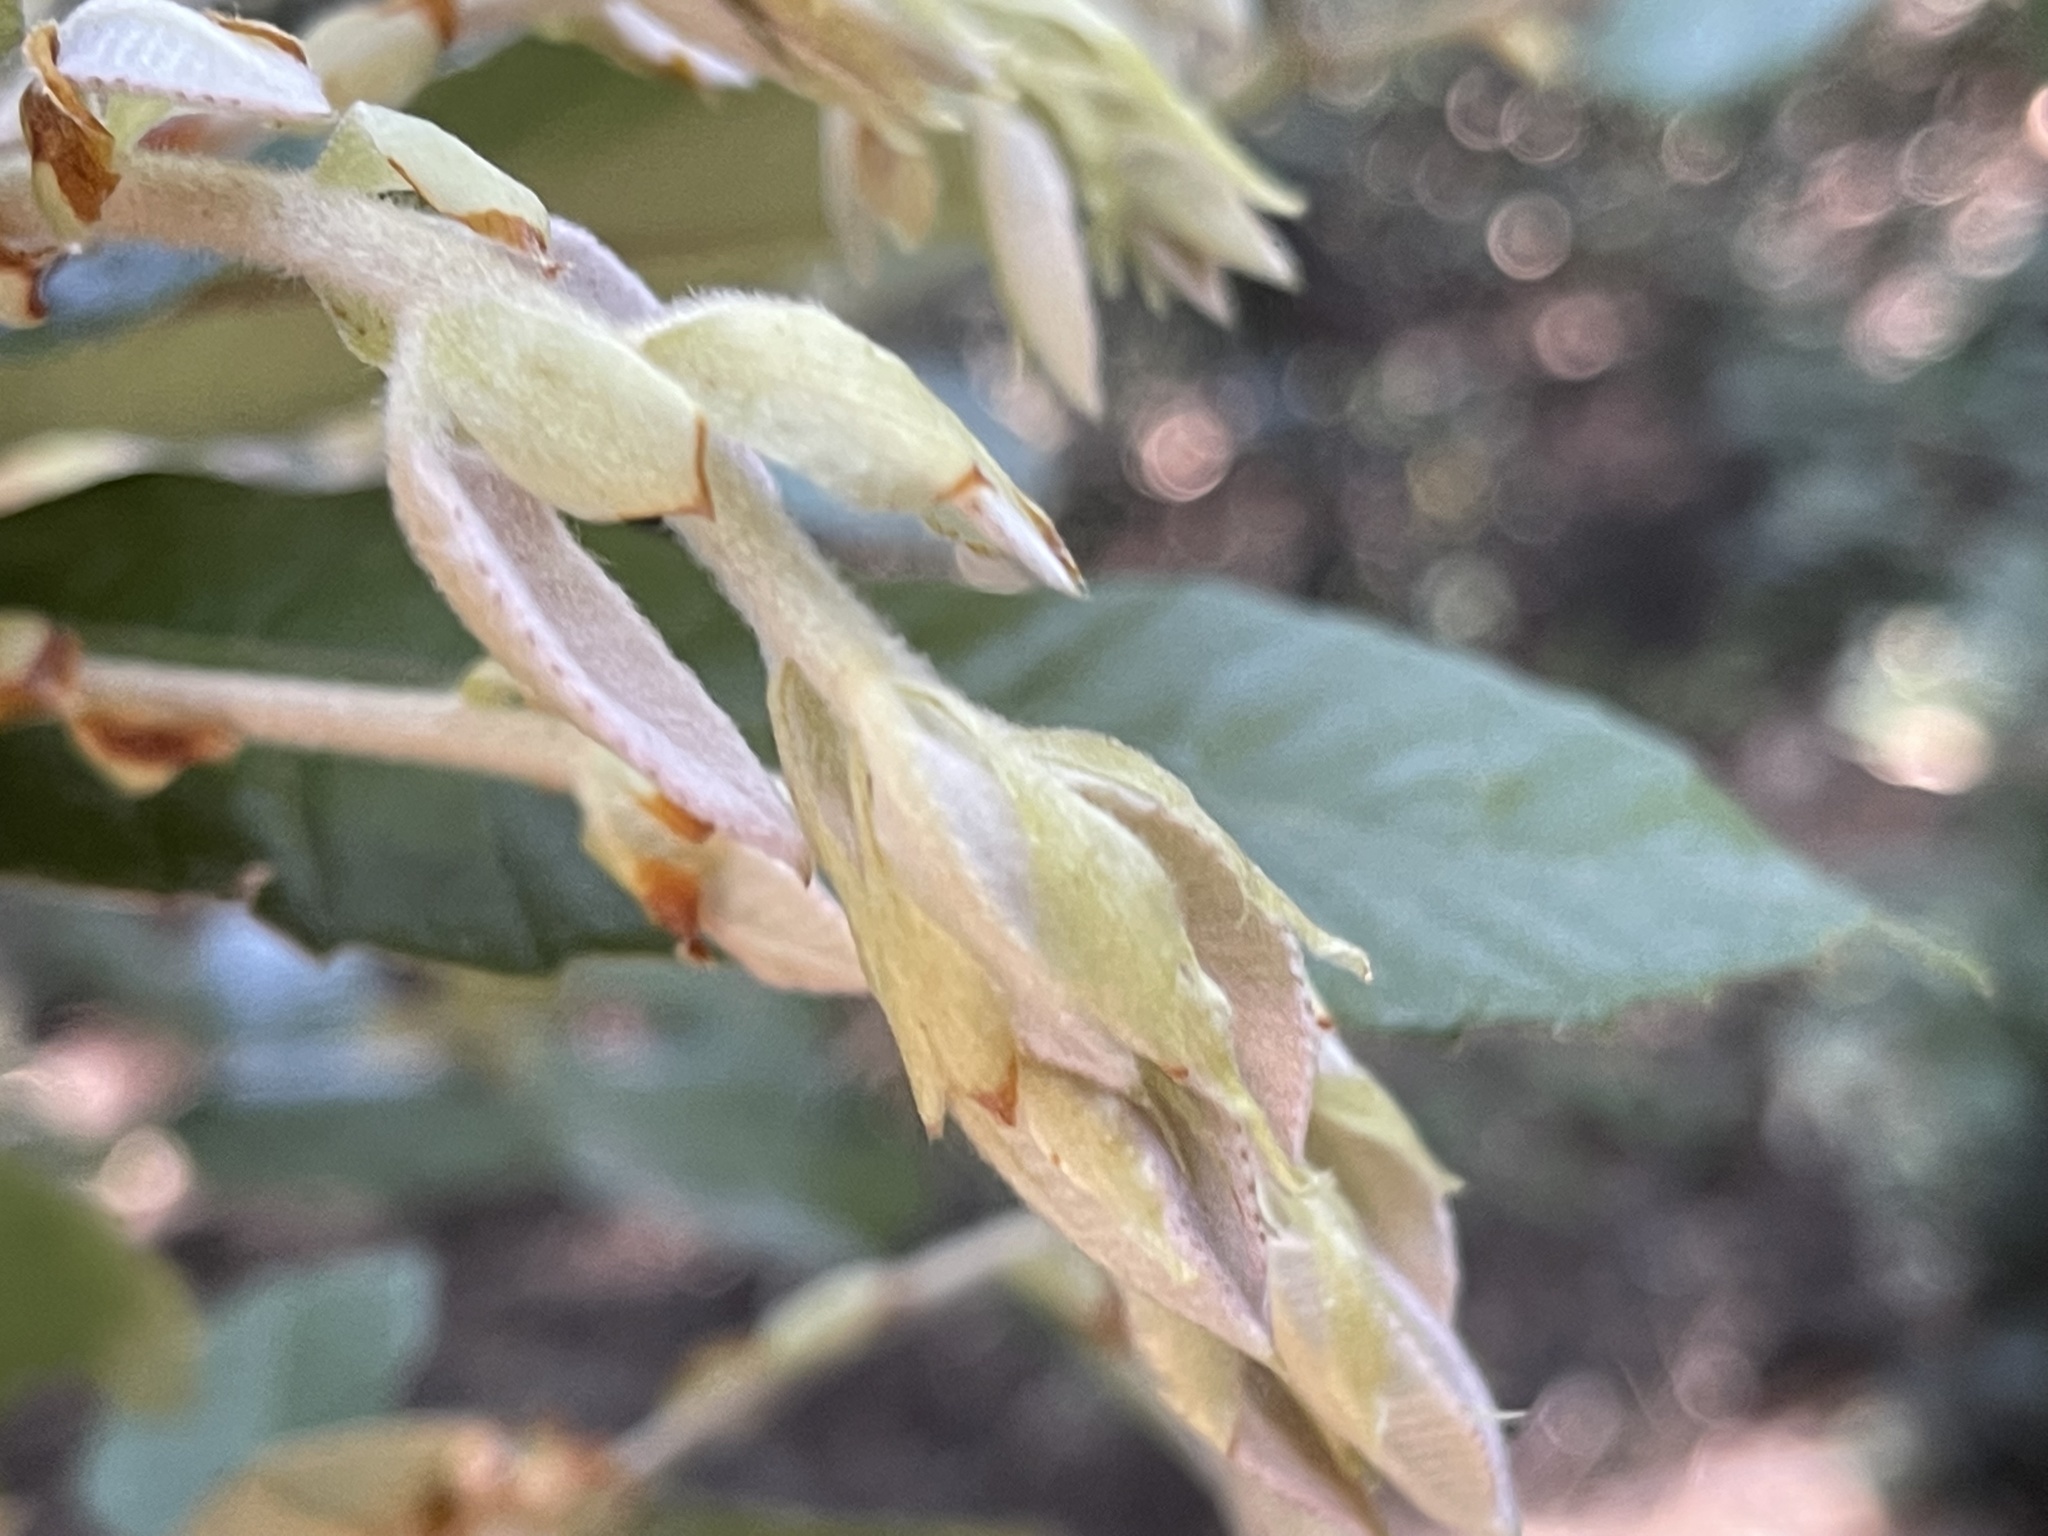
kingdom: Plantae
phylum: Tracheophyta
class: Magnoliopsida
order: Fagales
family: Fagaceae
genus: Notholithocarpus
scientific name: Notholithocarpus densiflorus
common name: Tan bark oak
